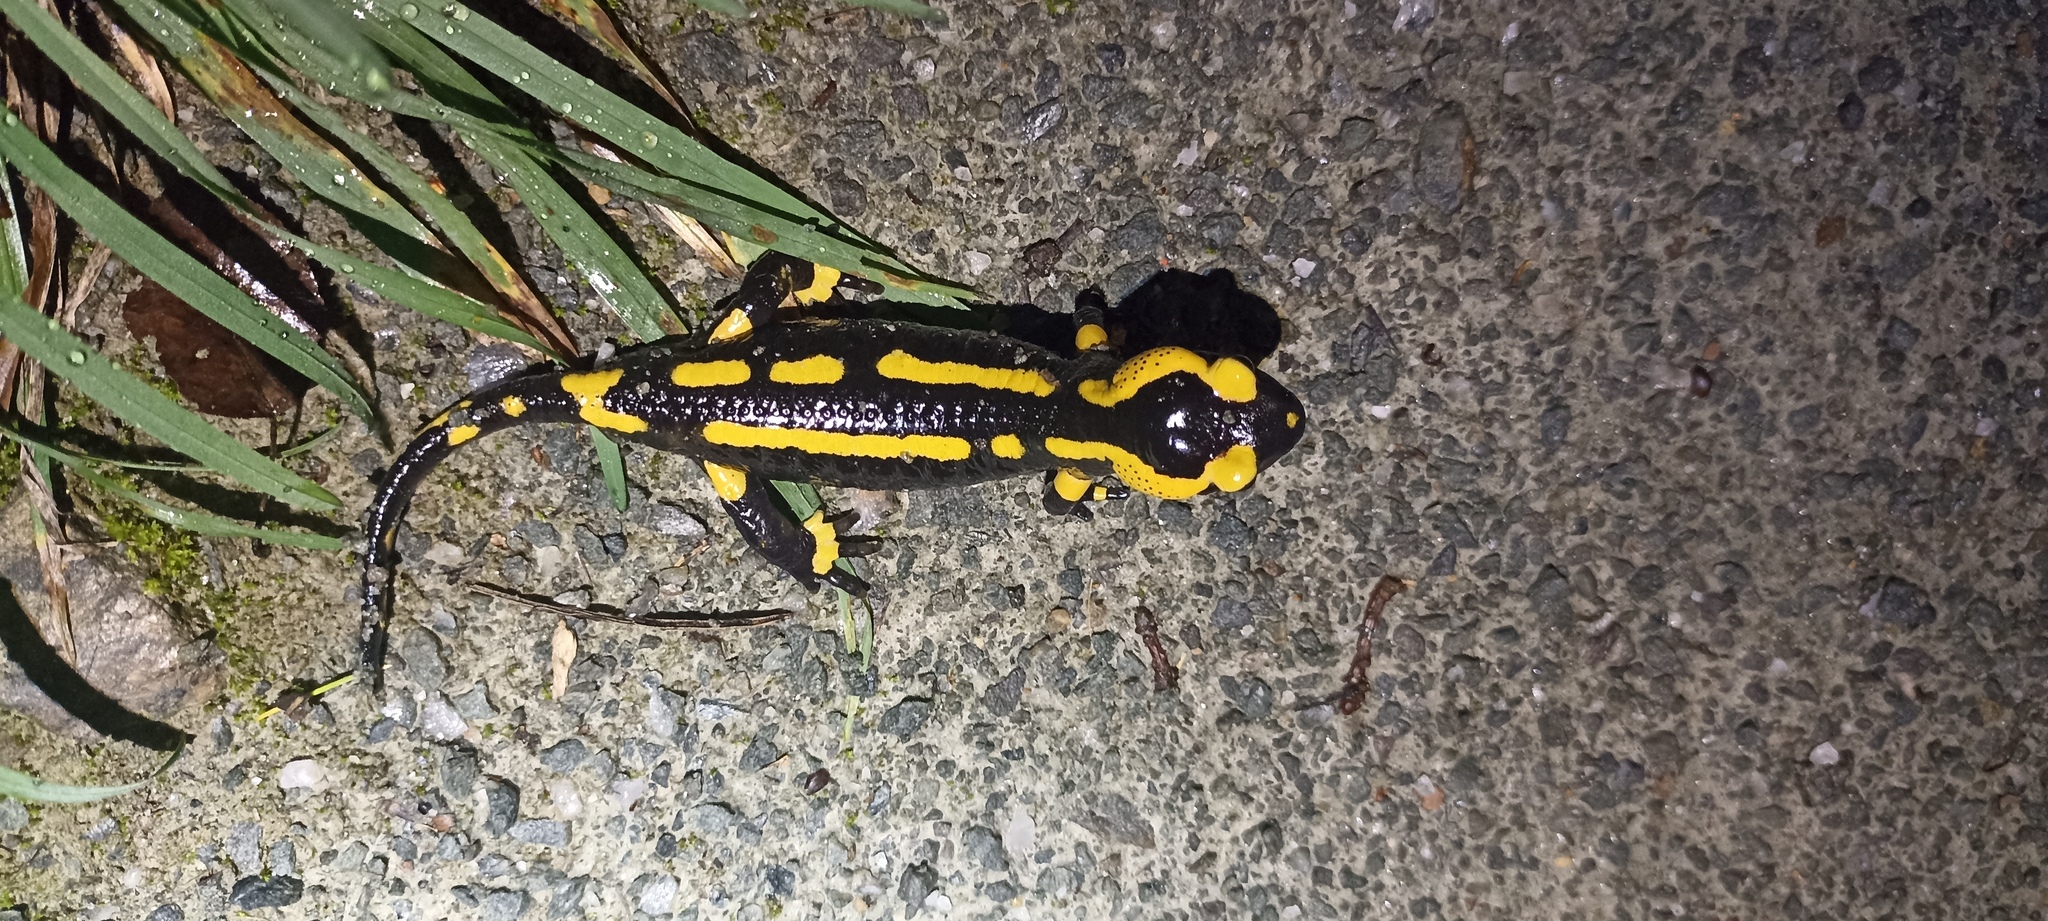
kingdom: Animalia
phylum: Chordata
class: Amphibia
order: Caudata
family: Salamandridae
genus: Salamandra
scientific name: Salamandra salamandra
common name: Fire salamander
